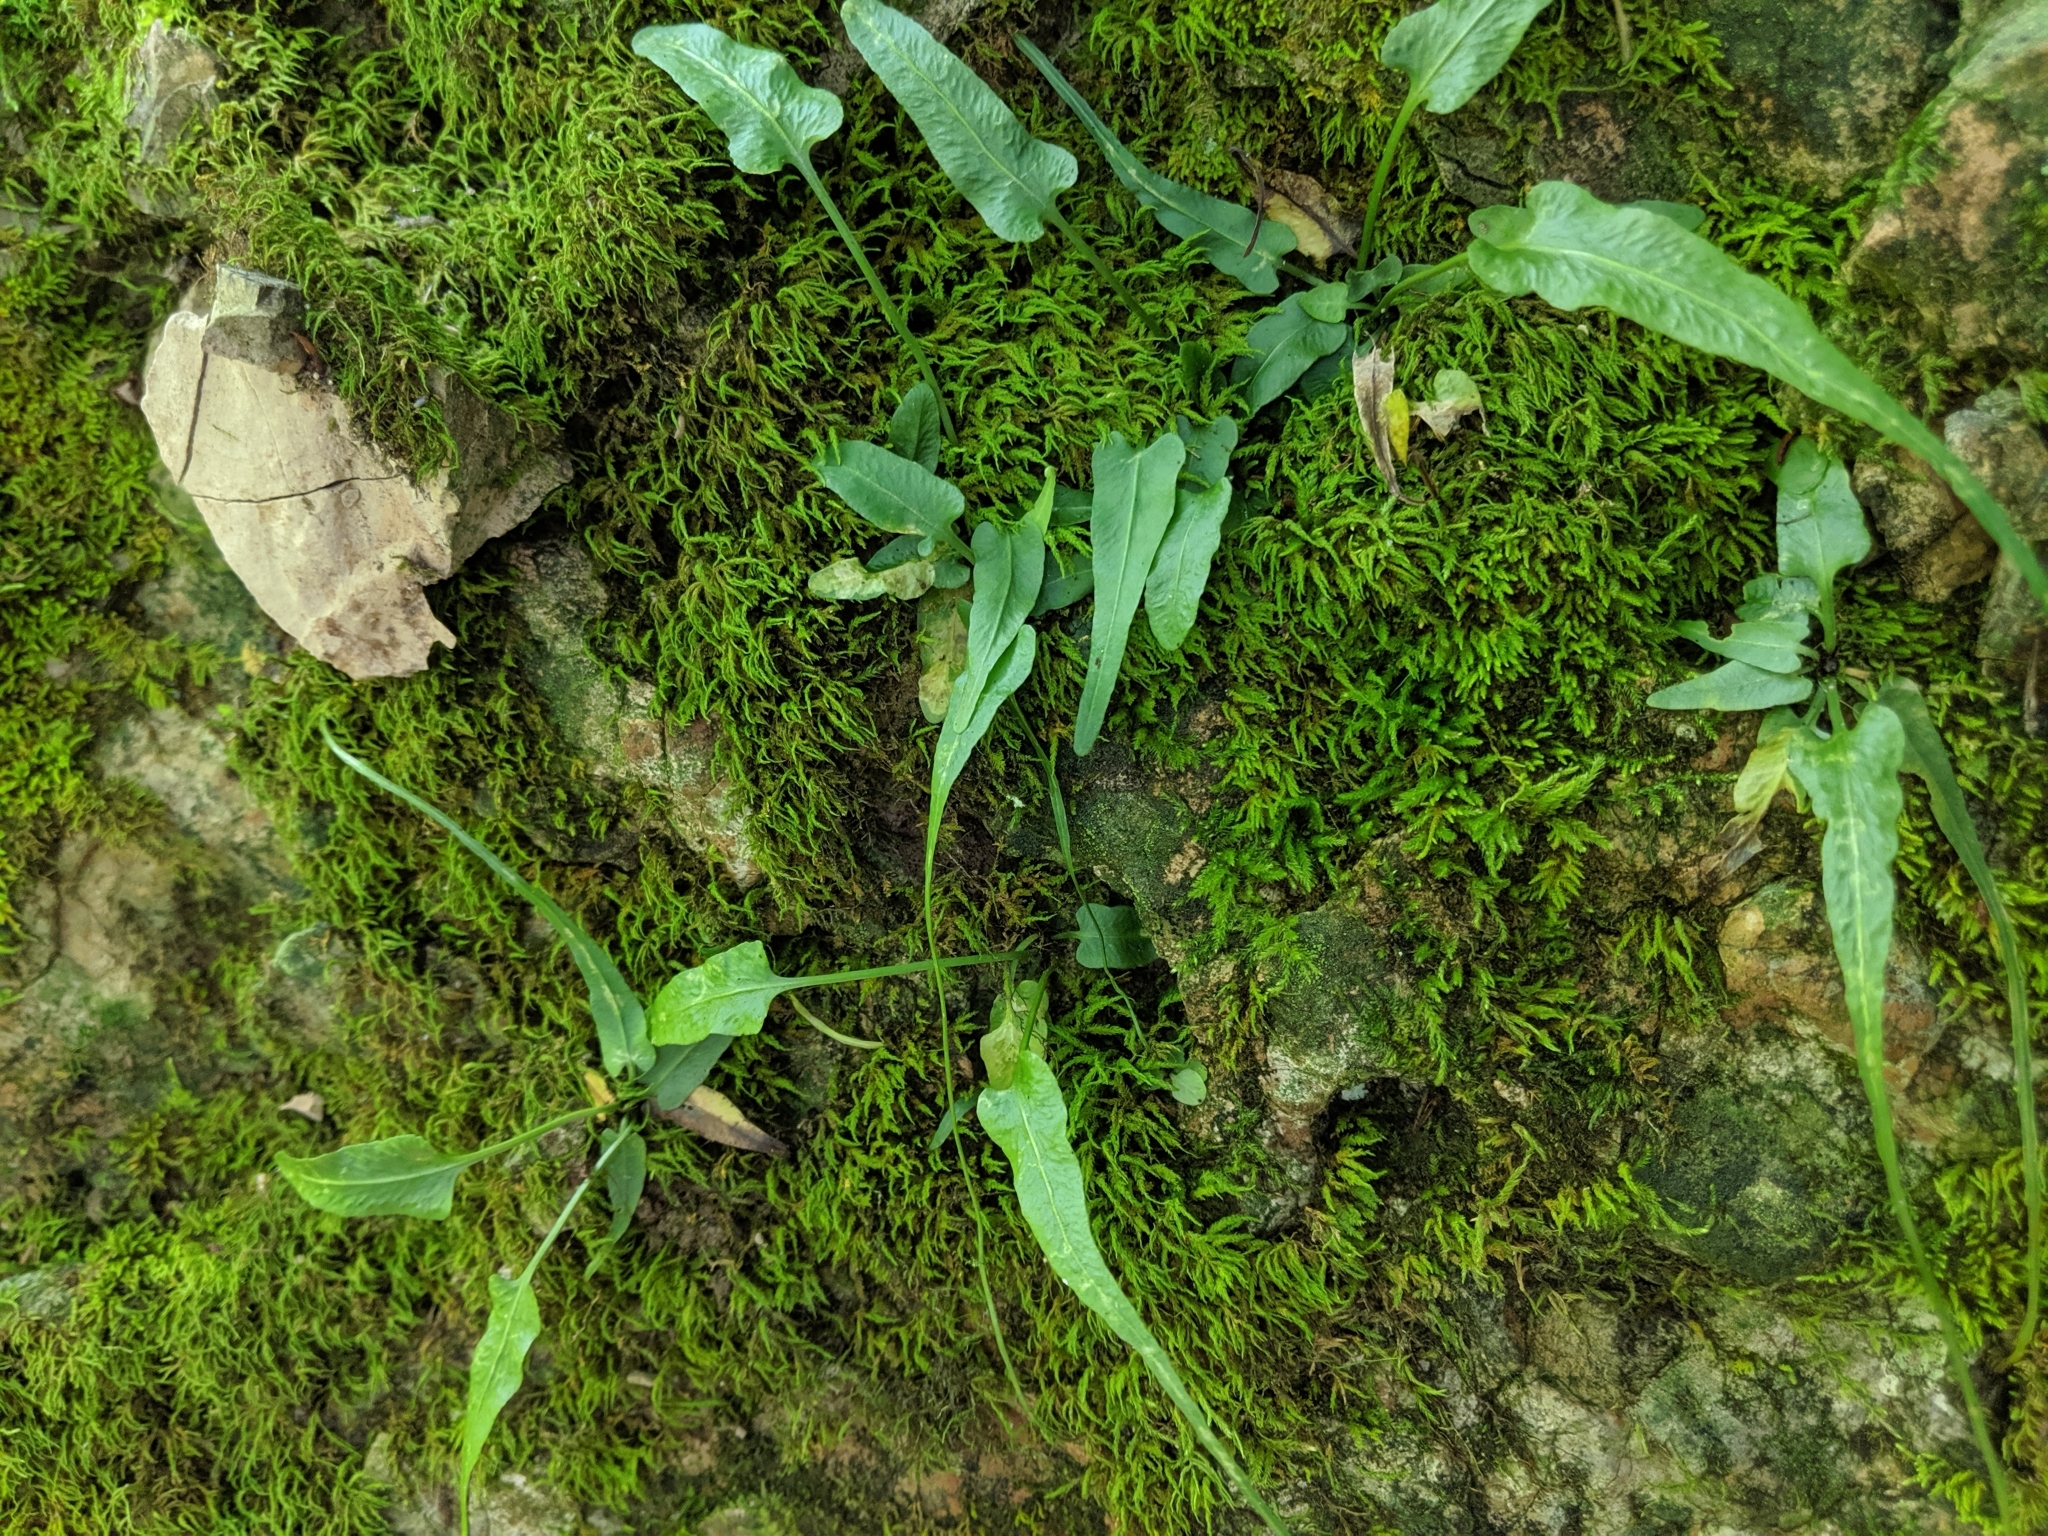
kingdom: Plantae
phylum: Tracheophyta
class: Polypodiopsida
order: Polypodiales
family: Aspleniaceae
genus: Asplenium
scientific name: Asplenium rhizophyllum
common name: Walking fern
